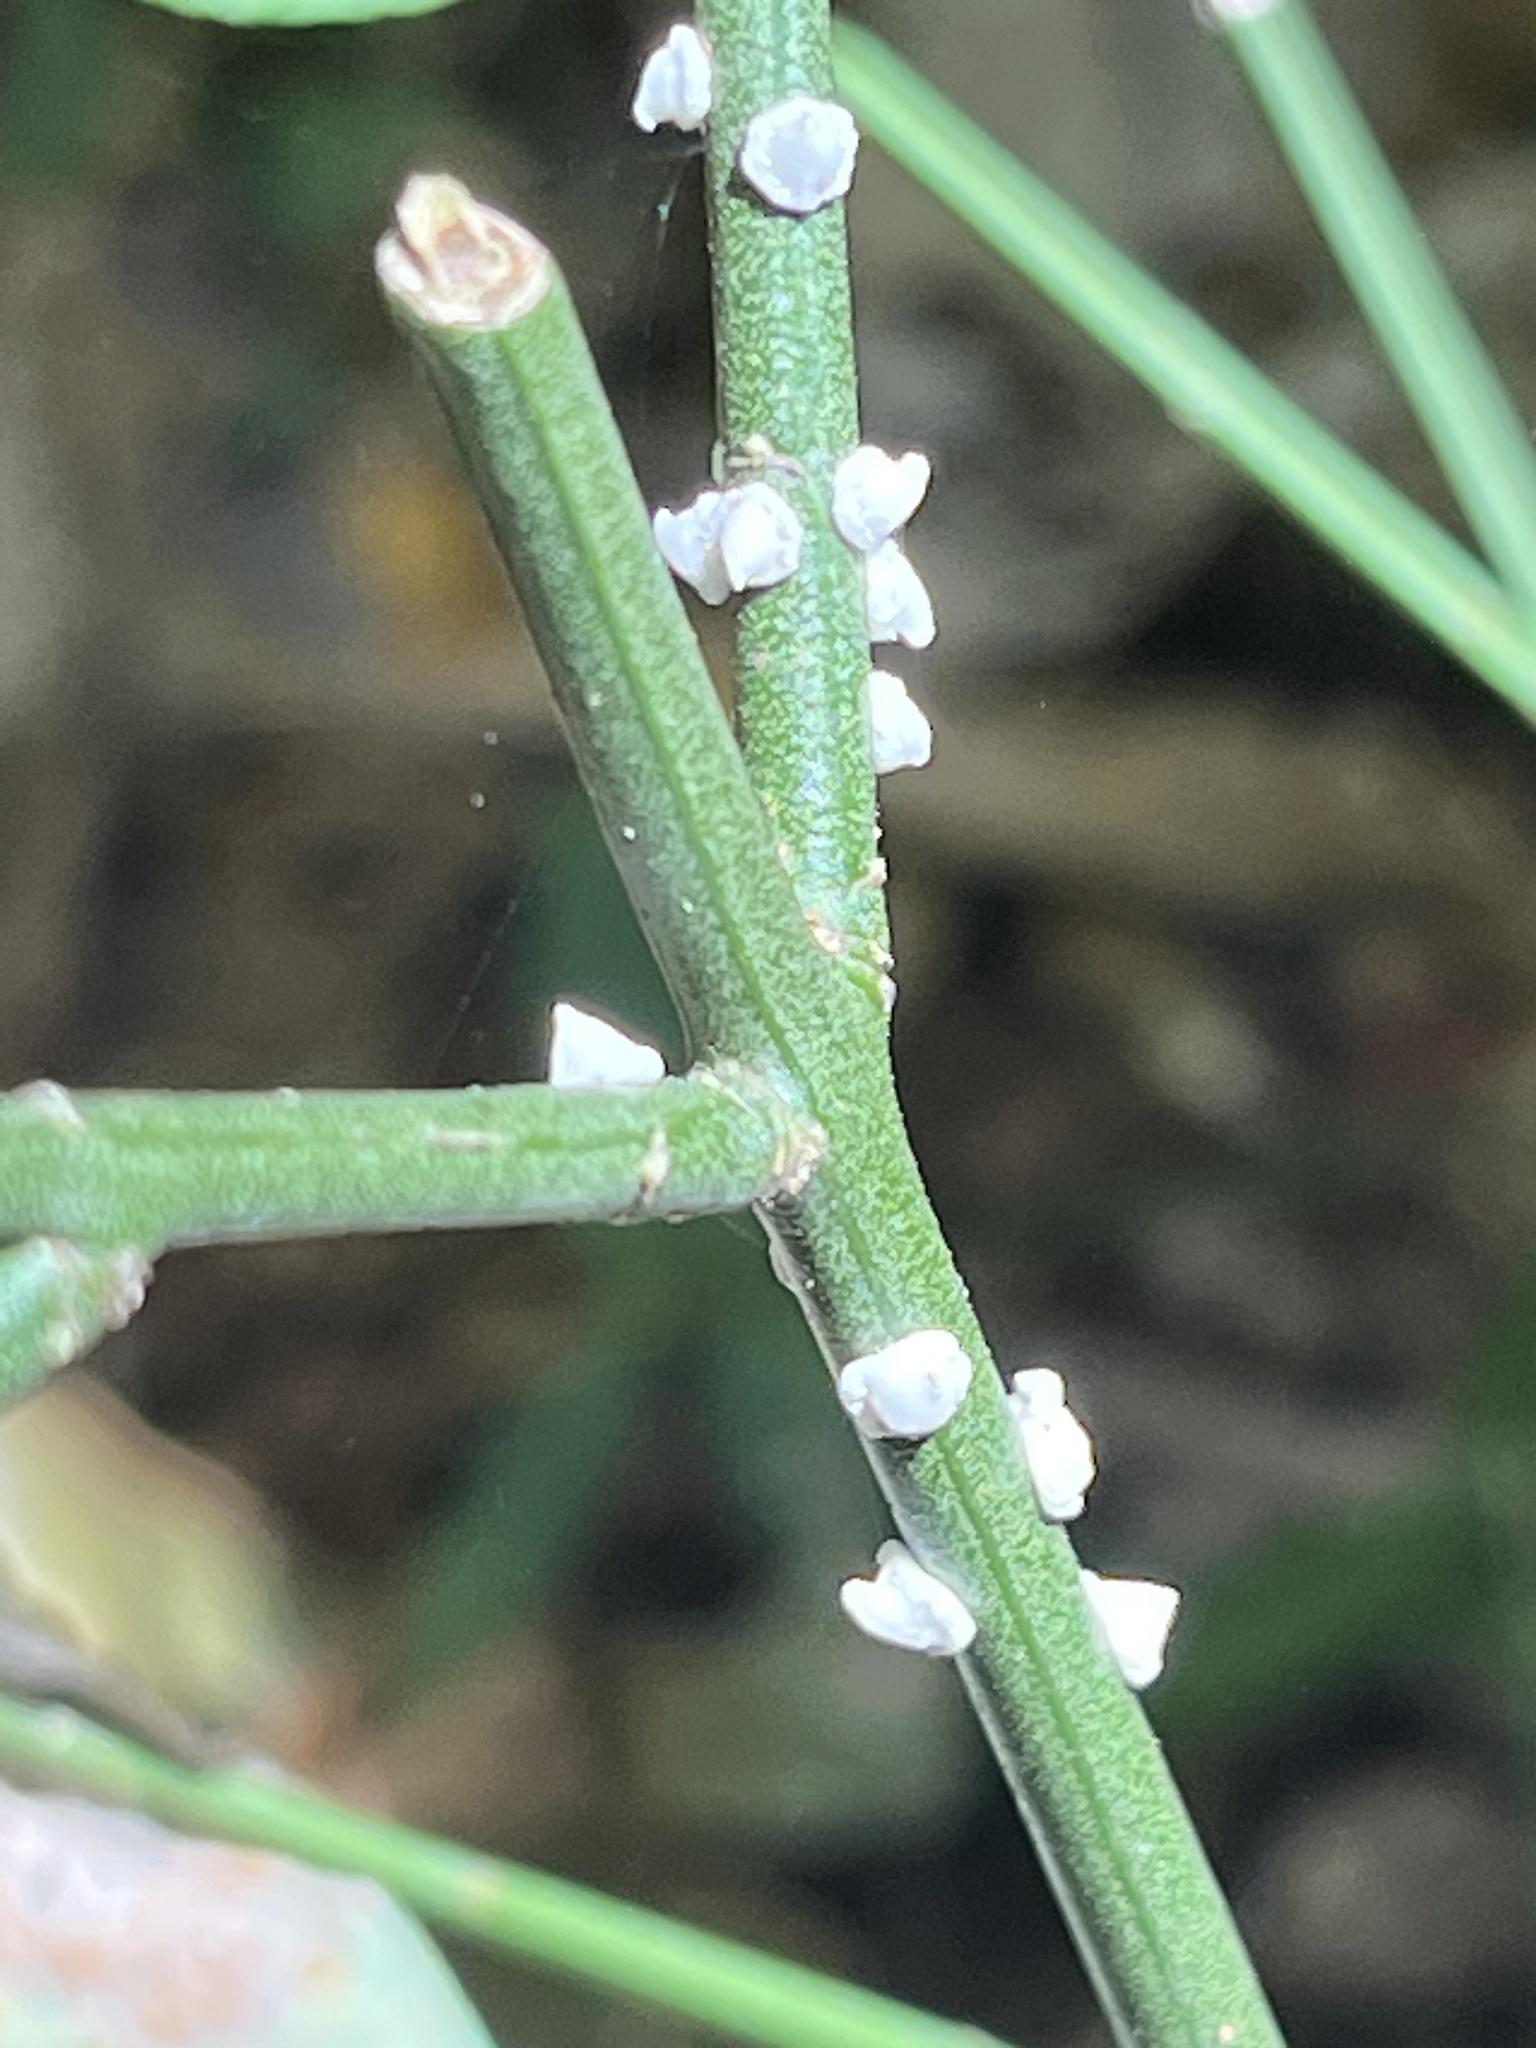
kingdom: Animalia
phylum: Arthropoda
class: Insecta
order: Hemiptera
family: Coccidae
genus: Ceroplastes
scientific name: Ceroplastes ceriferus
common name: Indian wax scale
